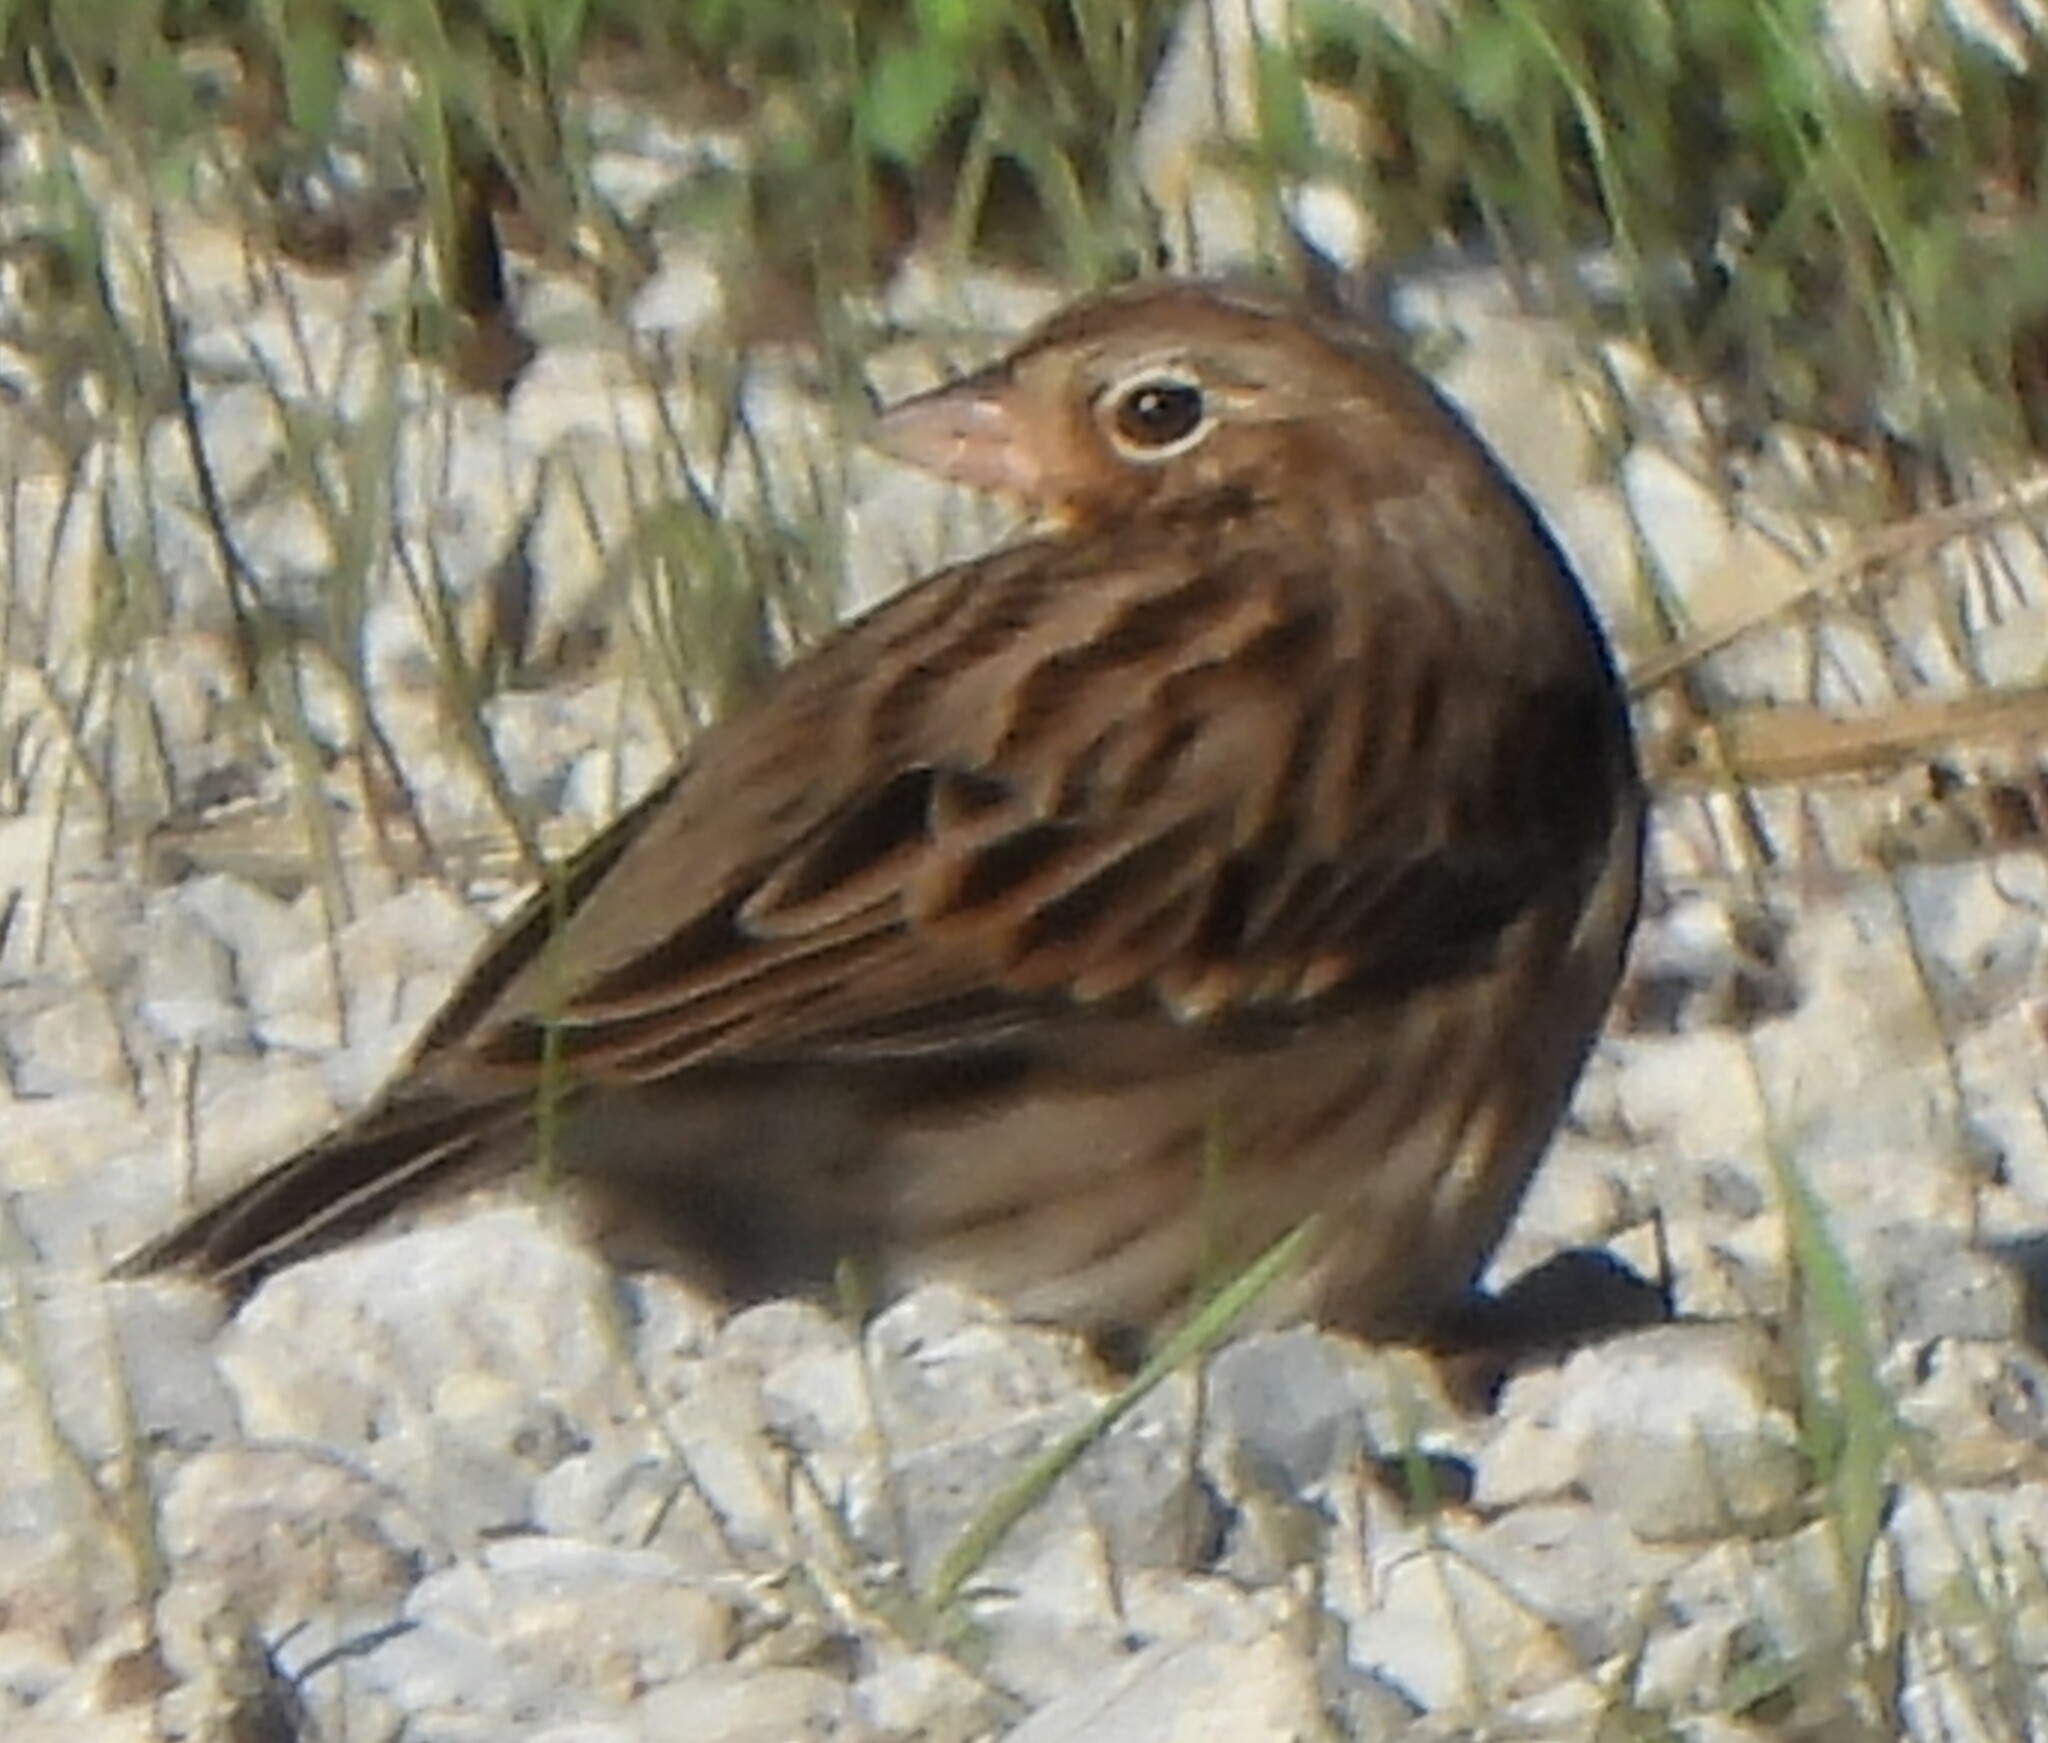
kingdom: Animalia
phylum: Chordata
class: Aves
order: Passeriformes
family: Passerellidae
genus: Pooecetes
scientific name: Pooecetes gramineus
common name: Vesper sparrow
